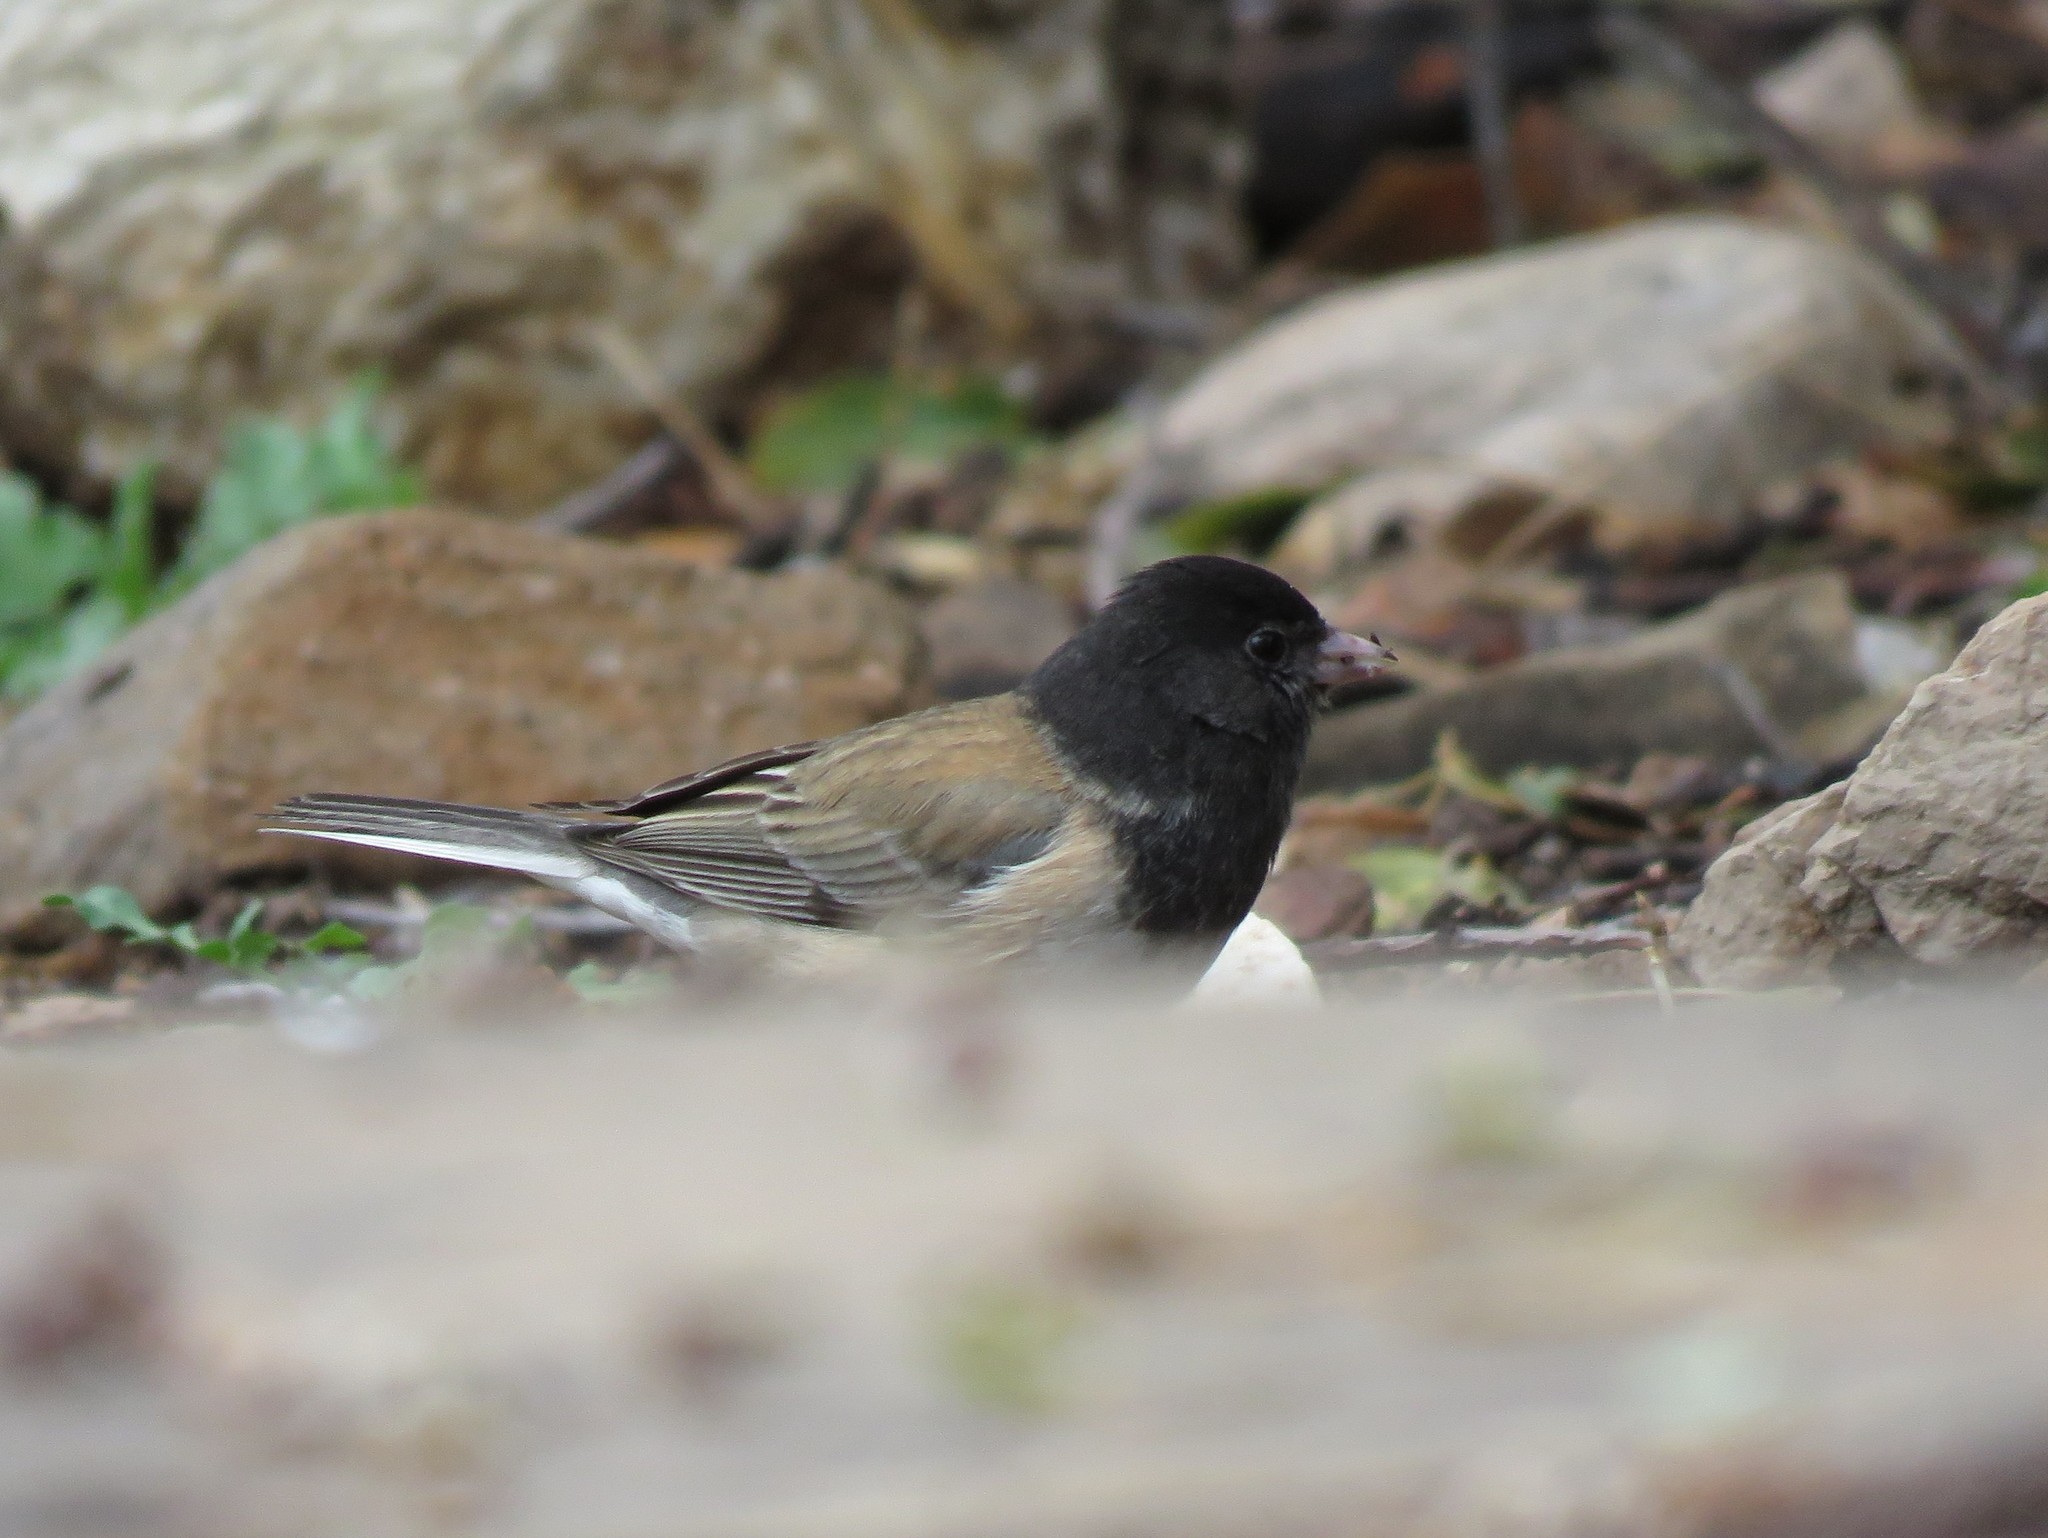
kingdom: Animalia
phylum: Chordata
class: Aves
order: Passeriformes
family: Passerellidae
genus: Junco
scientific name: Junco hyemalis
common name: Dark-eyed junco
